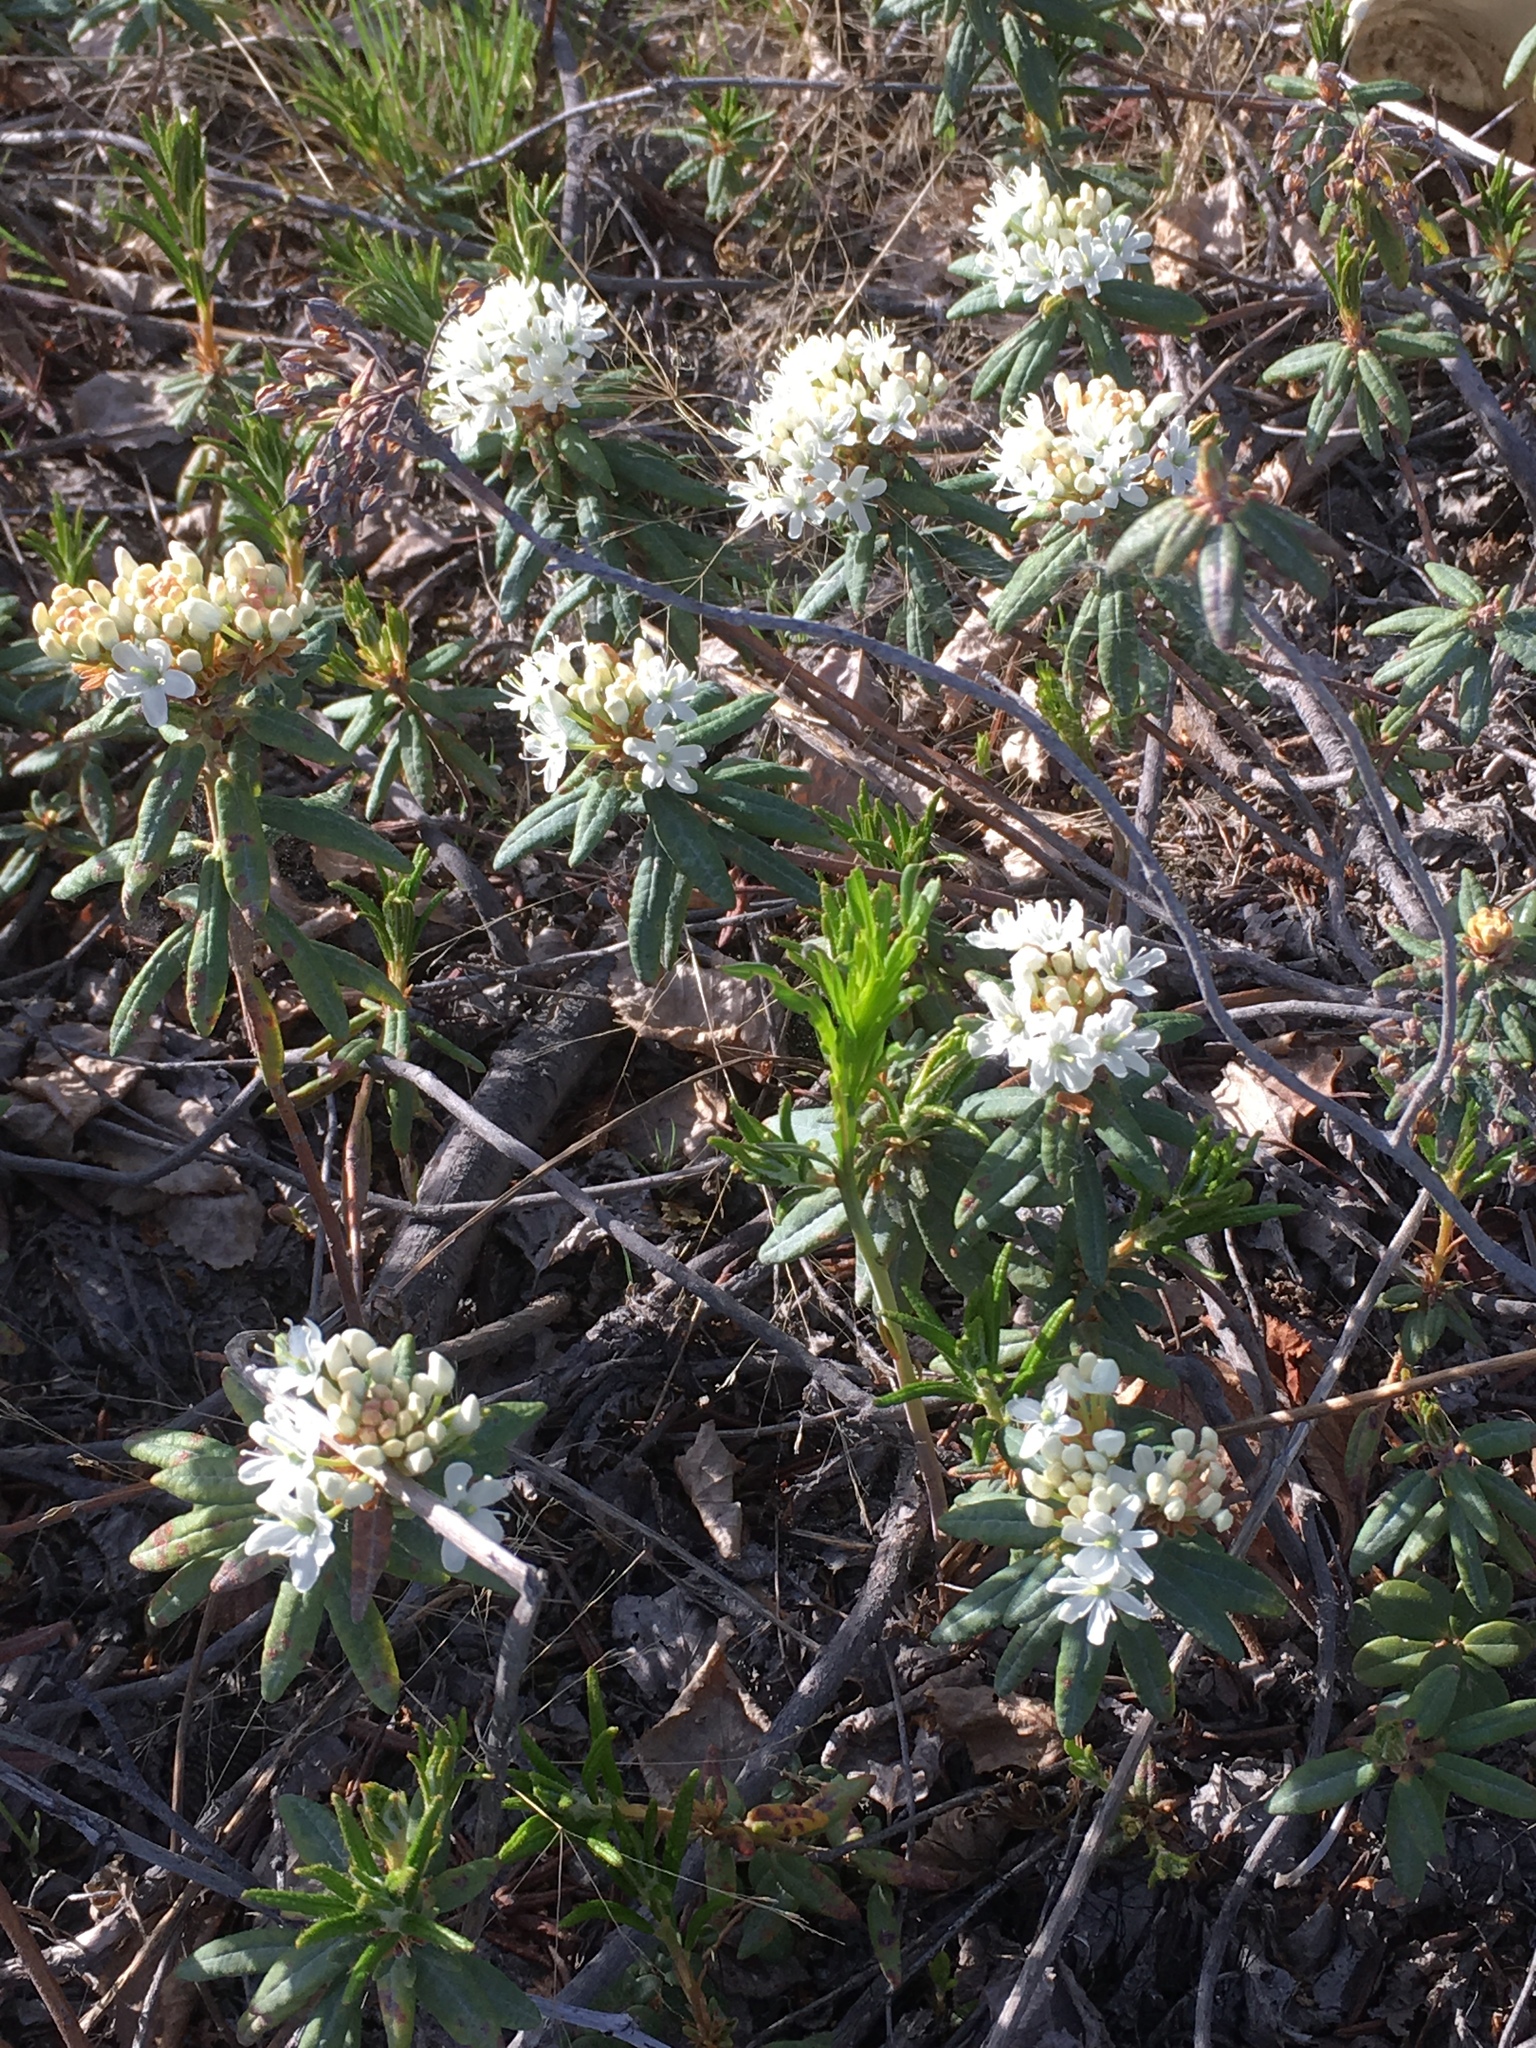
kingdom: Plantae
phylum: Tracheophyta
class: Magnoliopsida
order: Ericales
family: Ericaceae
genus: Rhododendron
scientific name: Rhododendron groenlandicum
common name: Bog labrador tea
